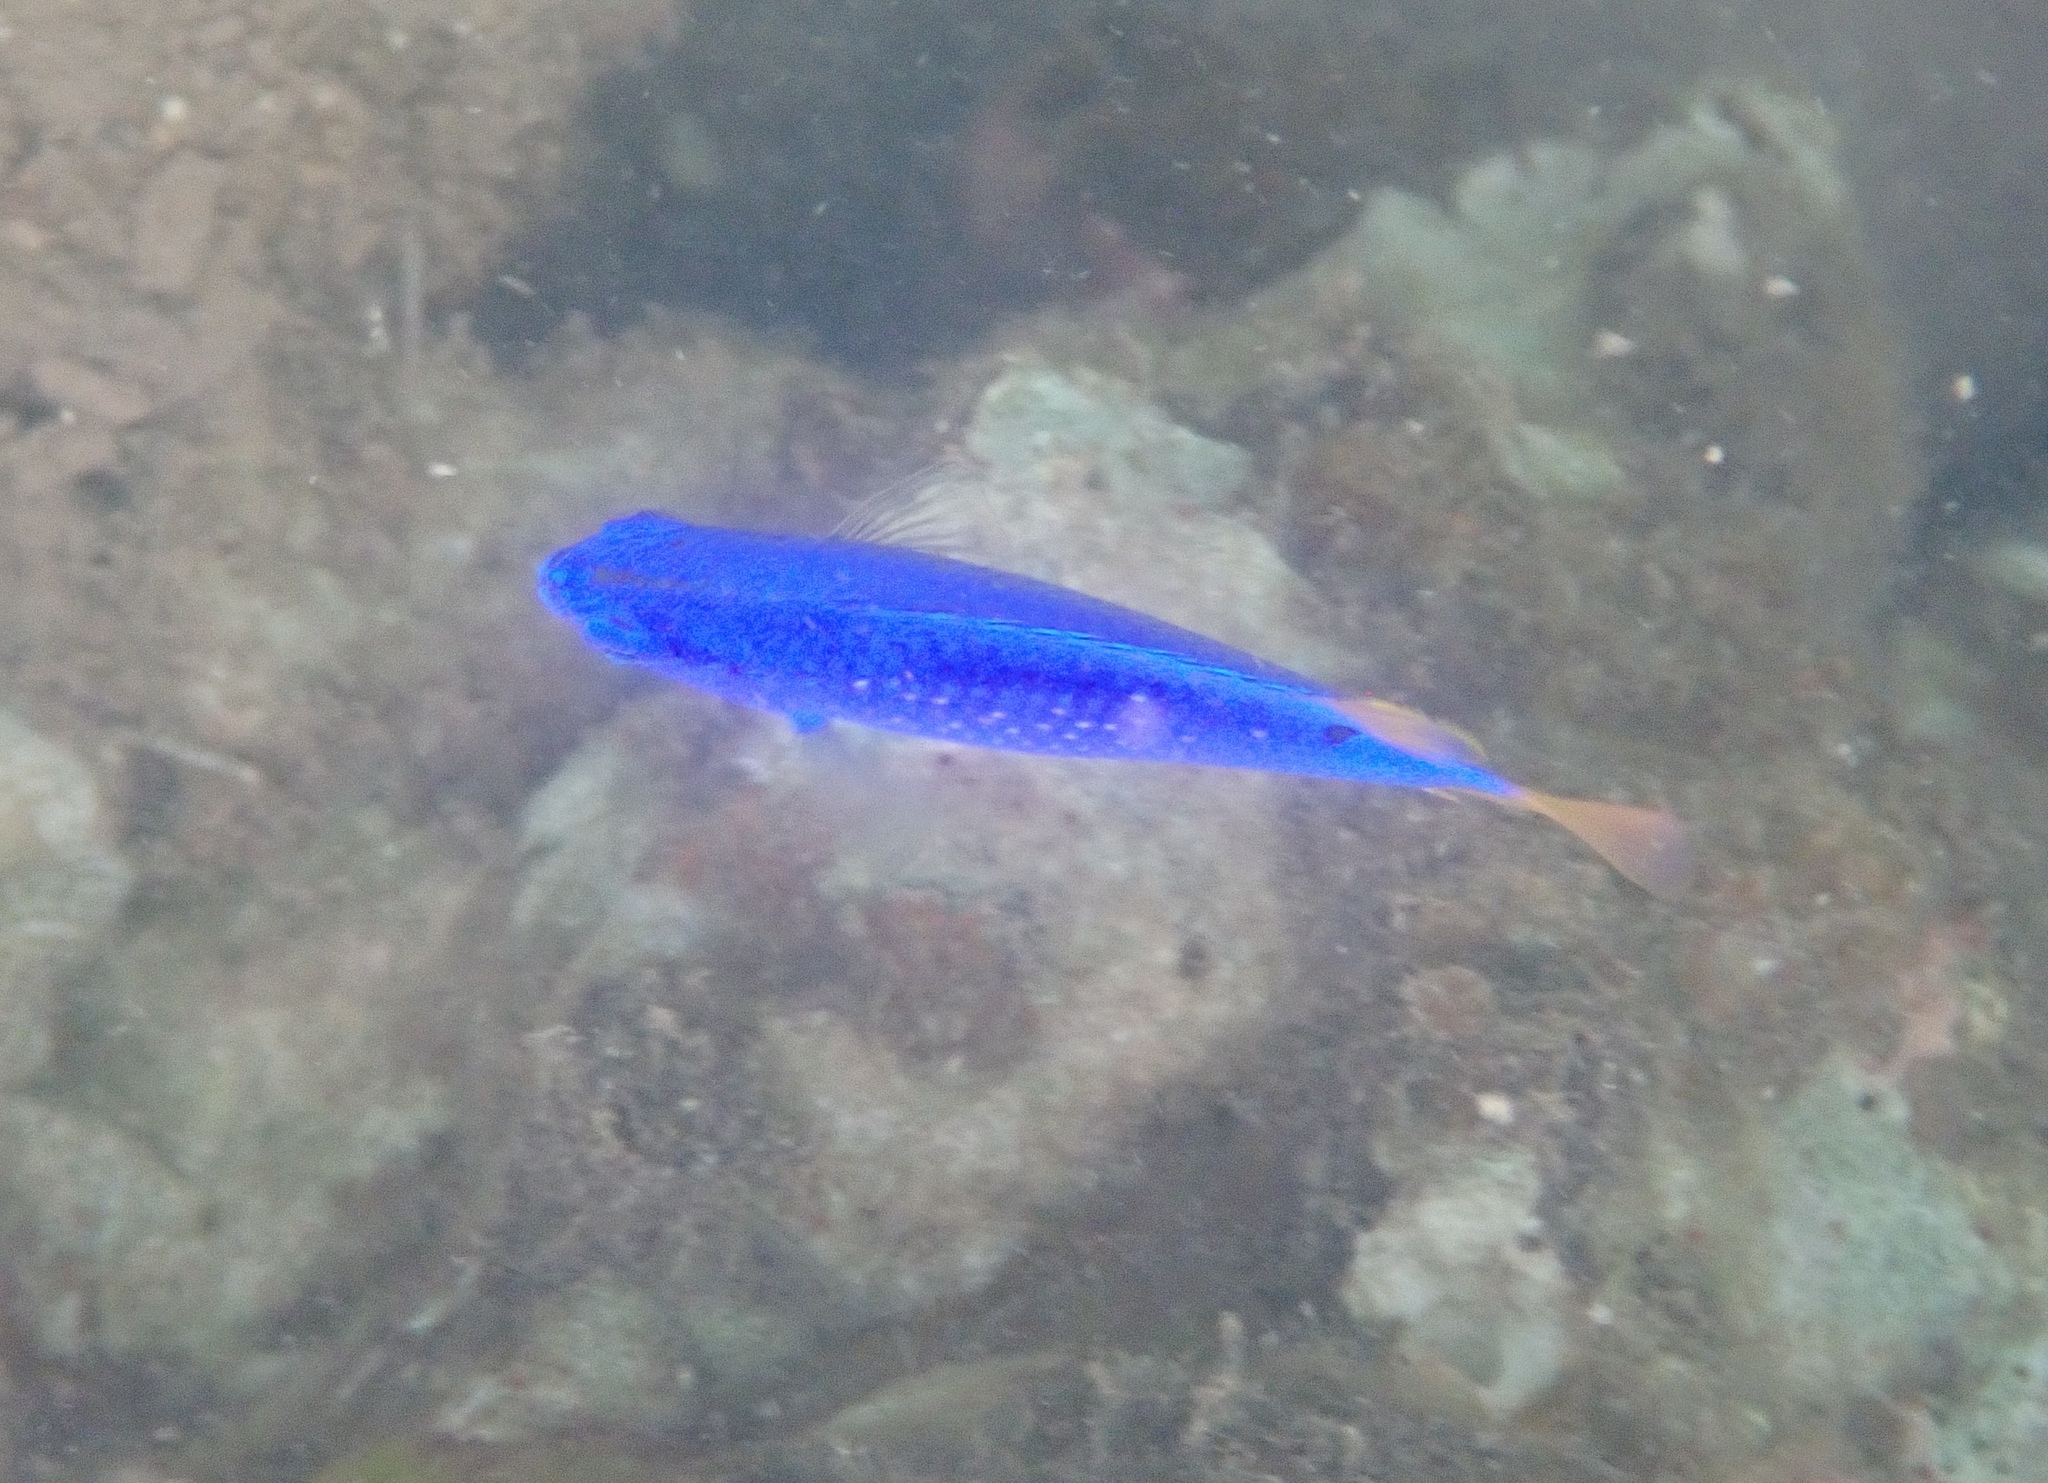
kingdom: Animalia
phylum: Chordata
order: Perciformes
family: Pomacentridae
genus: Chrysiptera
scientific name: Chrysiptera taupou
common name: Fiji damsel
